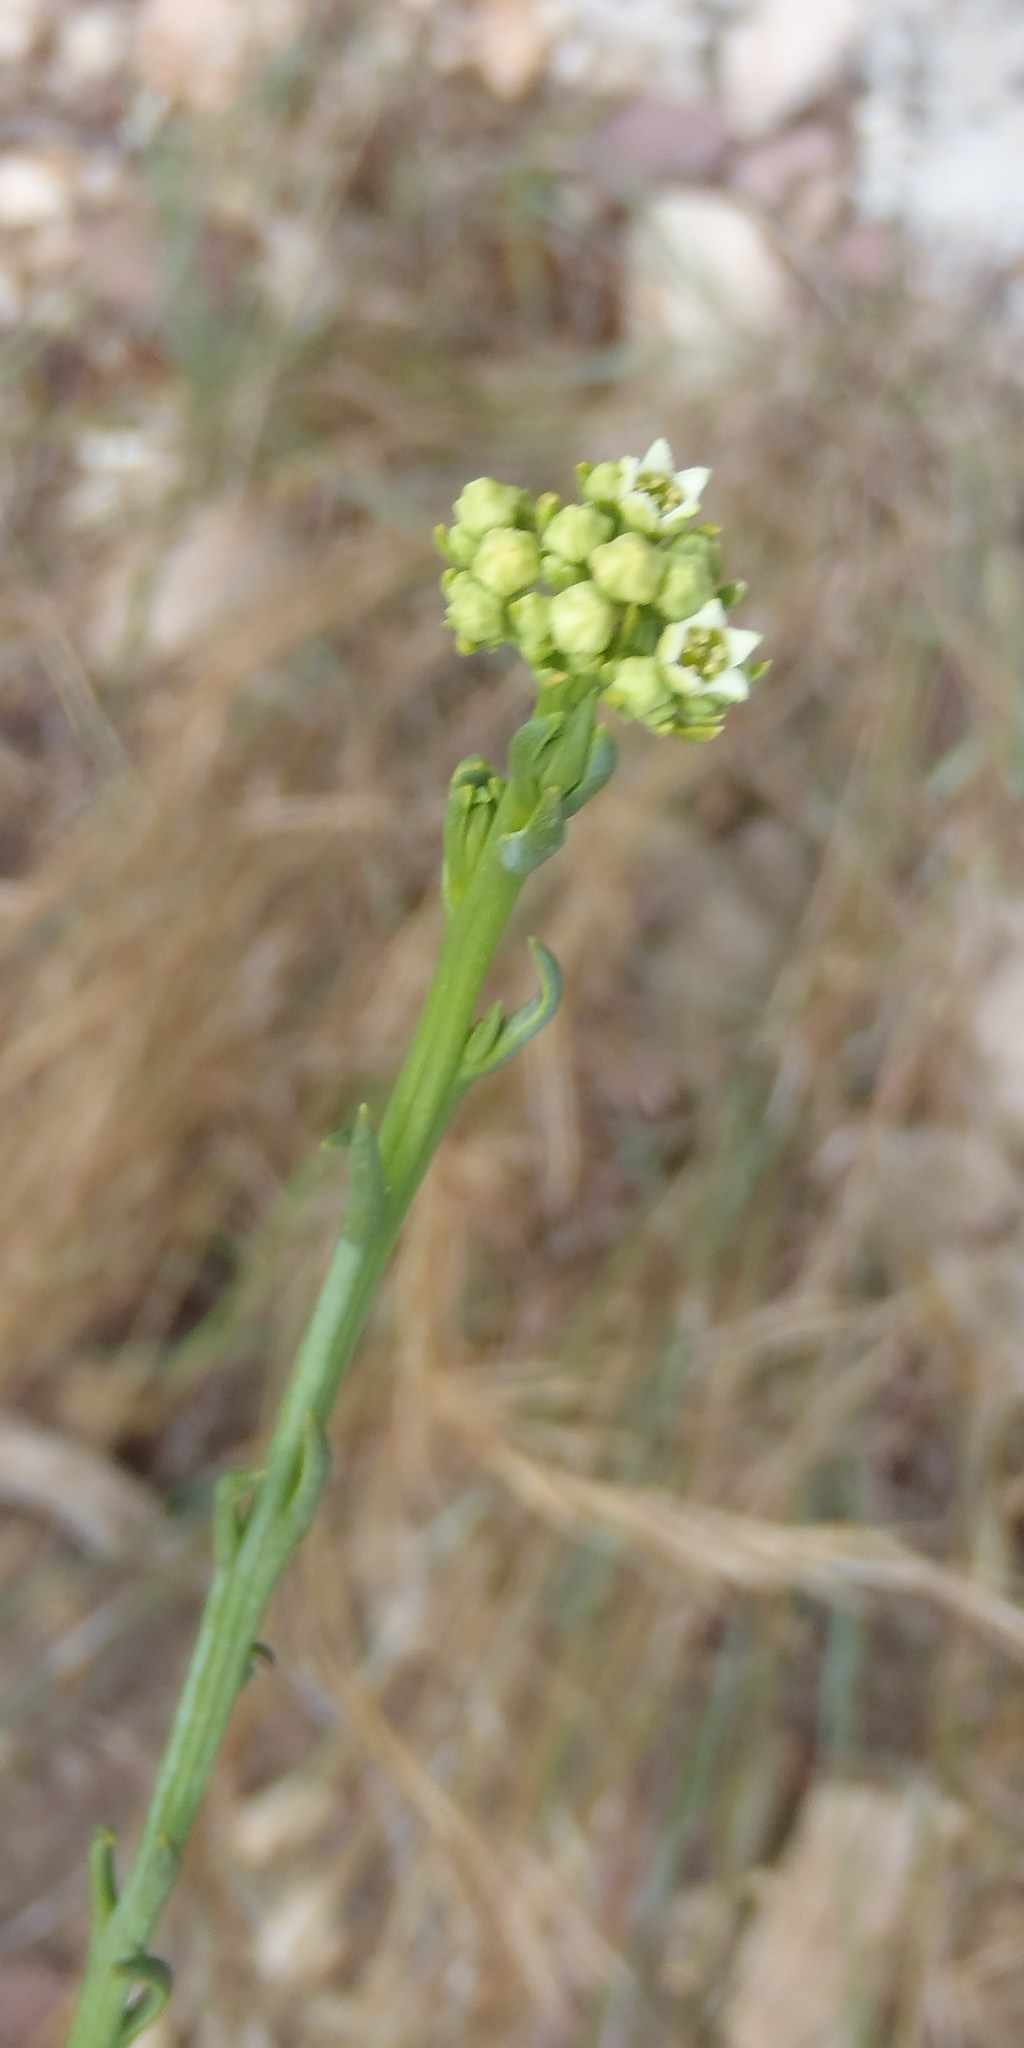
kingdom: Plantae
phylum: Tracheophyta
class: Magnoliopsida
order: Santalales
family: Thesiaceae
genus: Thesium
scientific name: Thesium strictum
